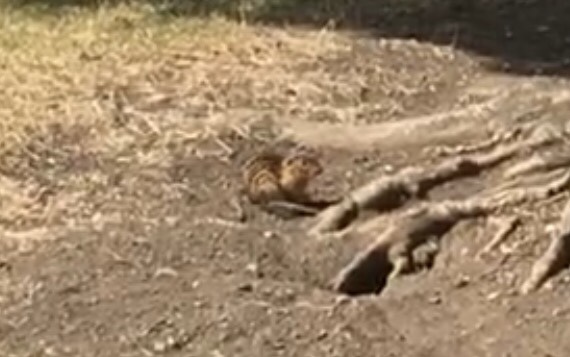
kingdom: Animalia
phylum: Chordata
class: Mammalia
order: Rodentia
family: Sciuridae
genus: Ictidomys
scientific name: Ictidomys tridecemlineatus
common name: Thirteen-lined ground squirrel
